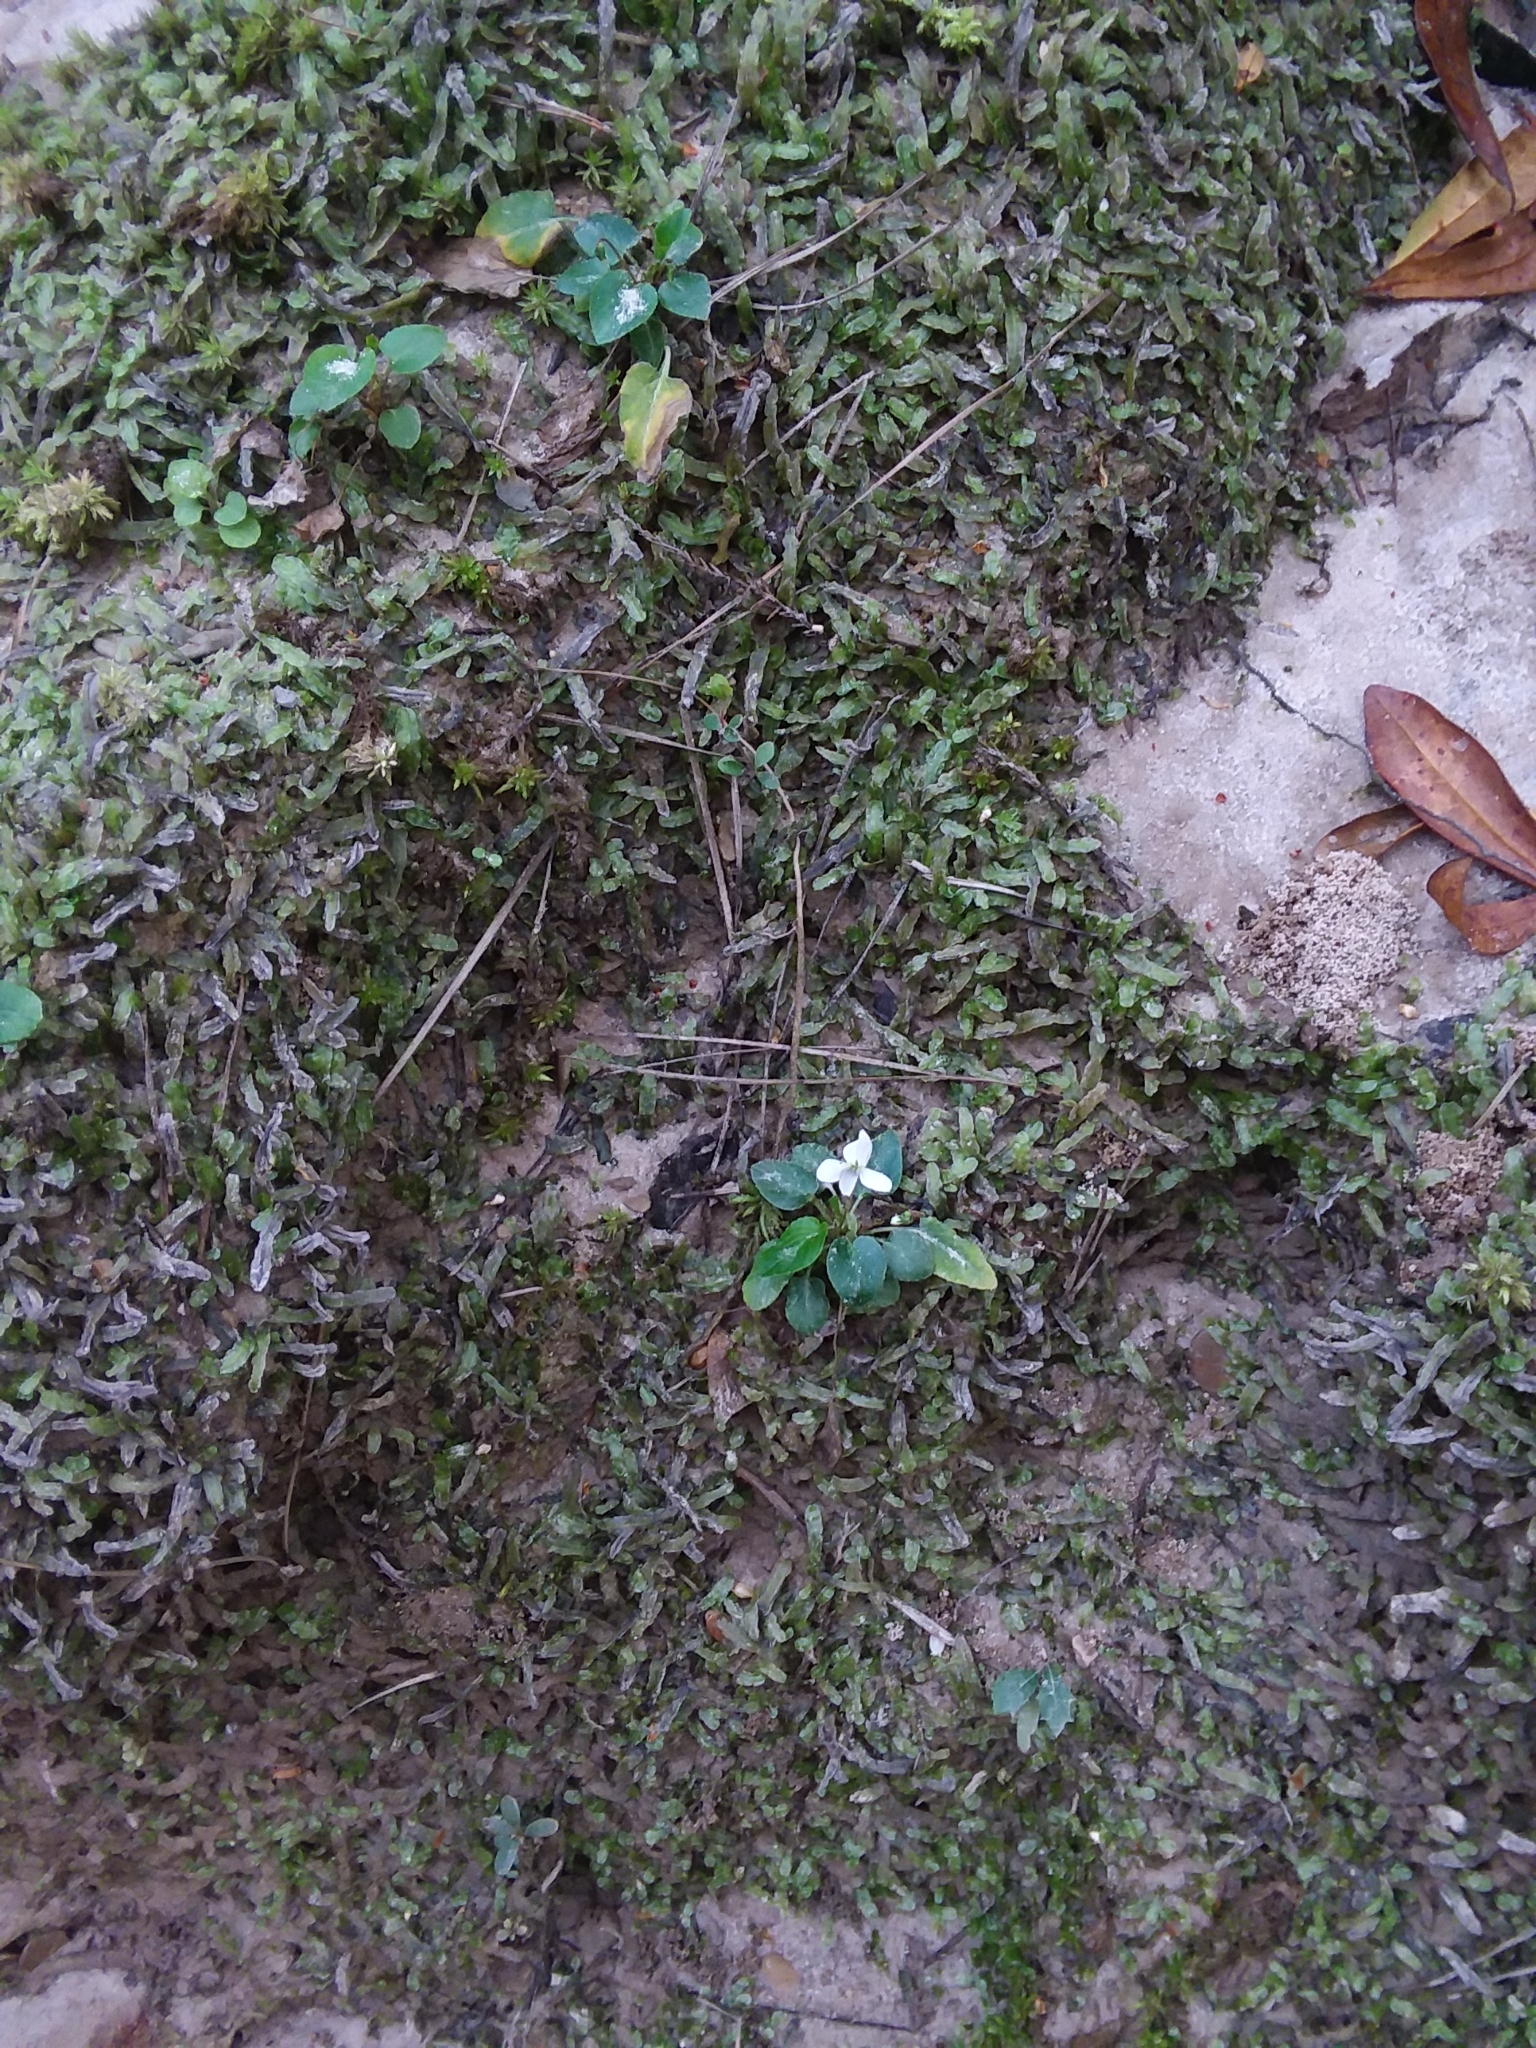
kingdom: Plantae
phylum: Tracheophyta
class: Magnoliopsida
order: Malpighiales
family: Violaceae
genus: Viola
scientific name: Viola primulifolia
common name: Primrose-leaf violet
